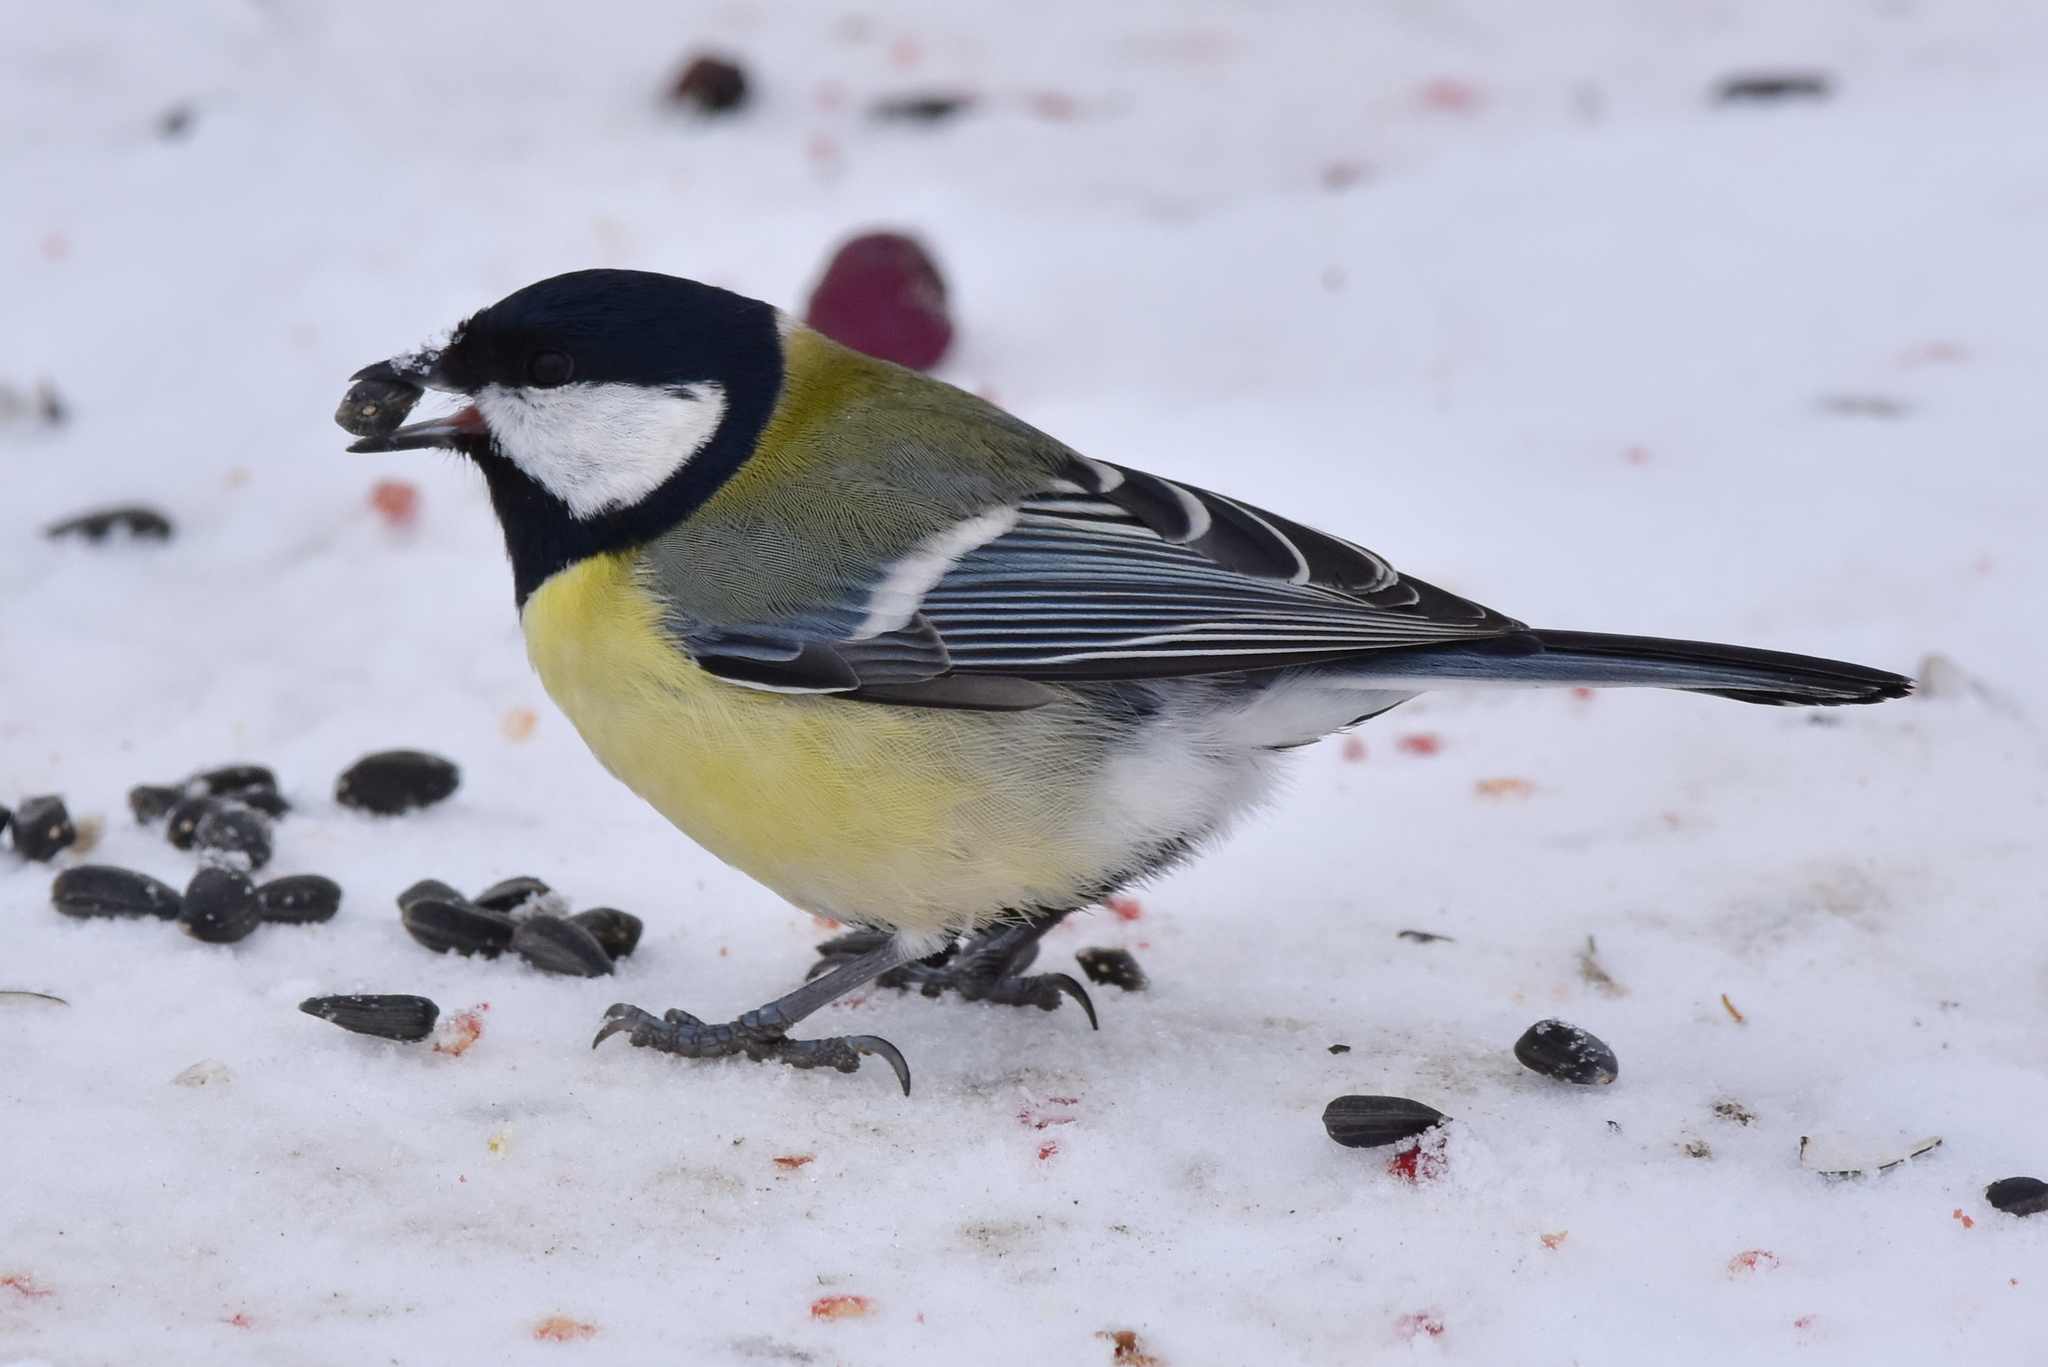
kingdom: Animalia
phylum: Chordata
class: Aves
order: Passeriformes
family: Paridae
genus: Parus
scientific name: Parus major
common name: Great tit
